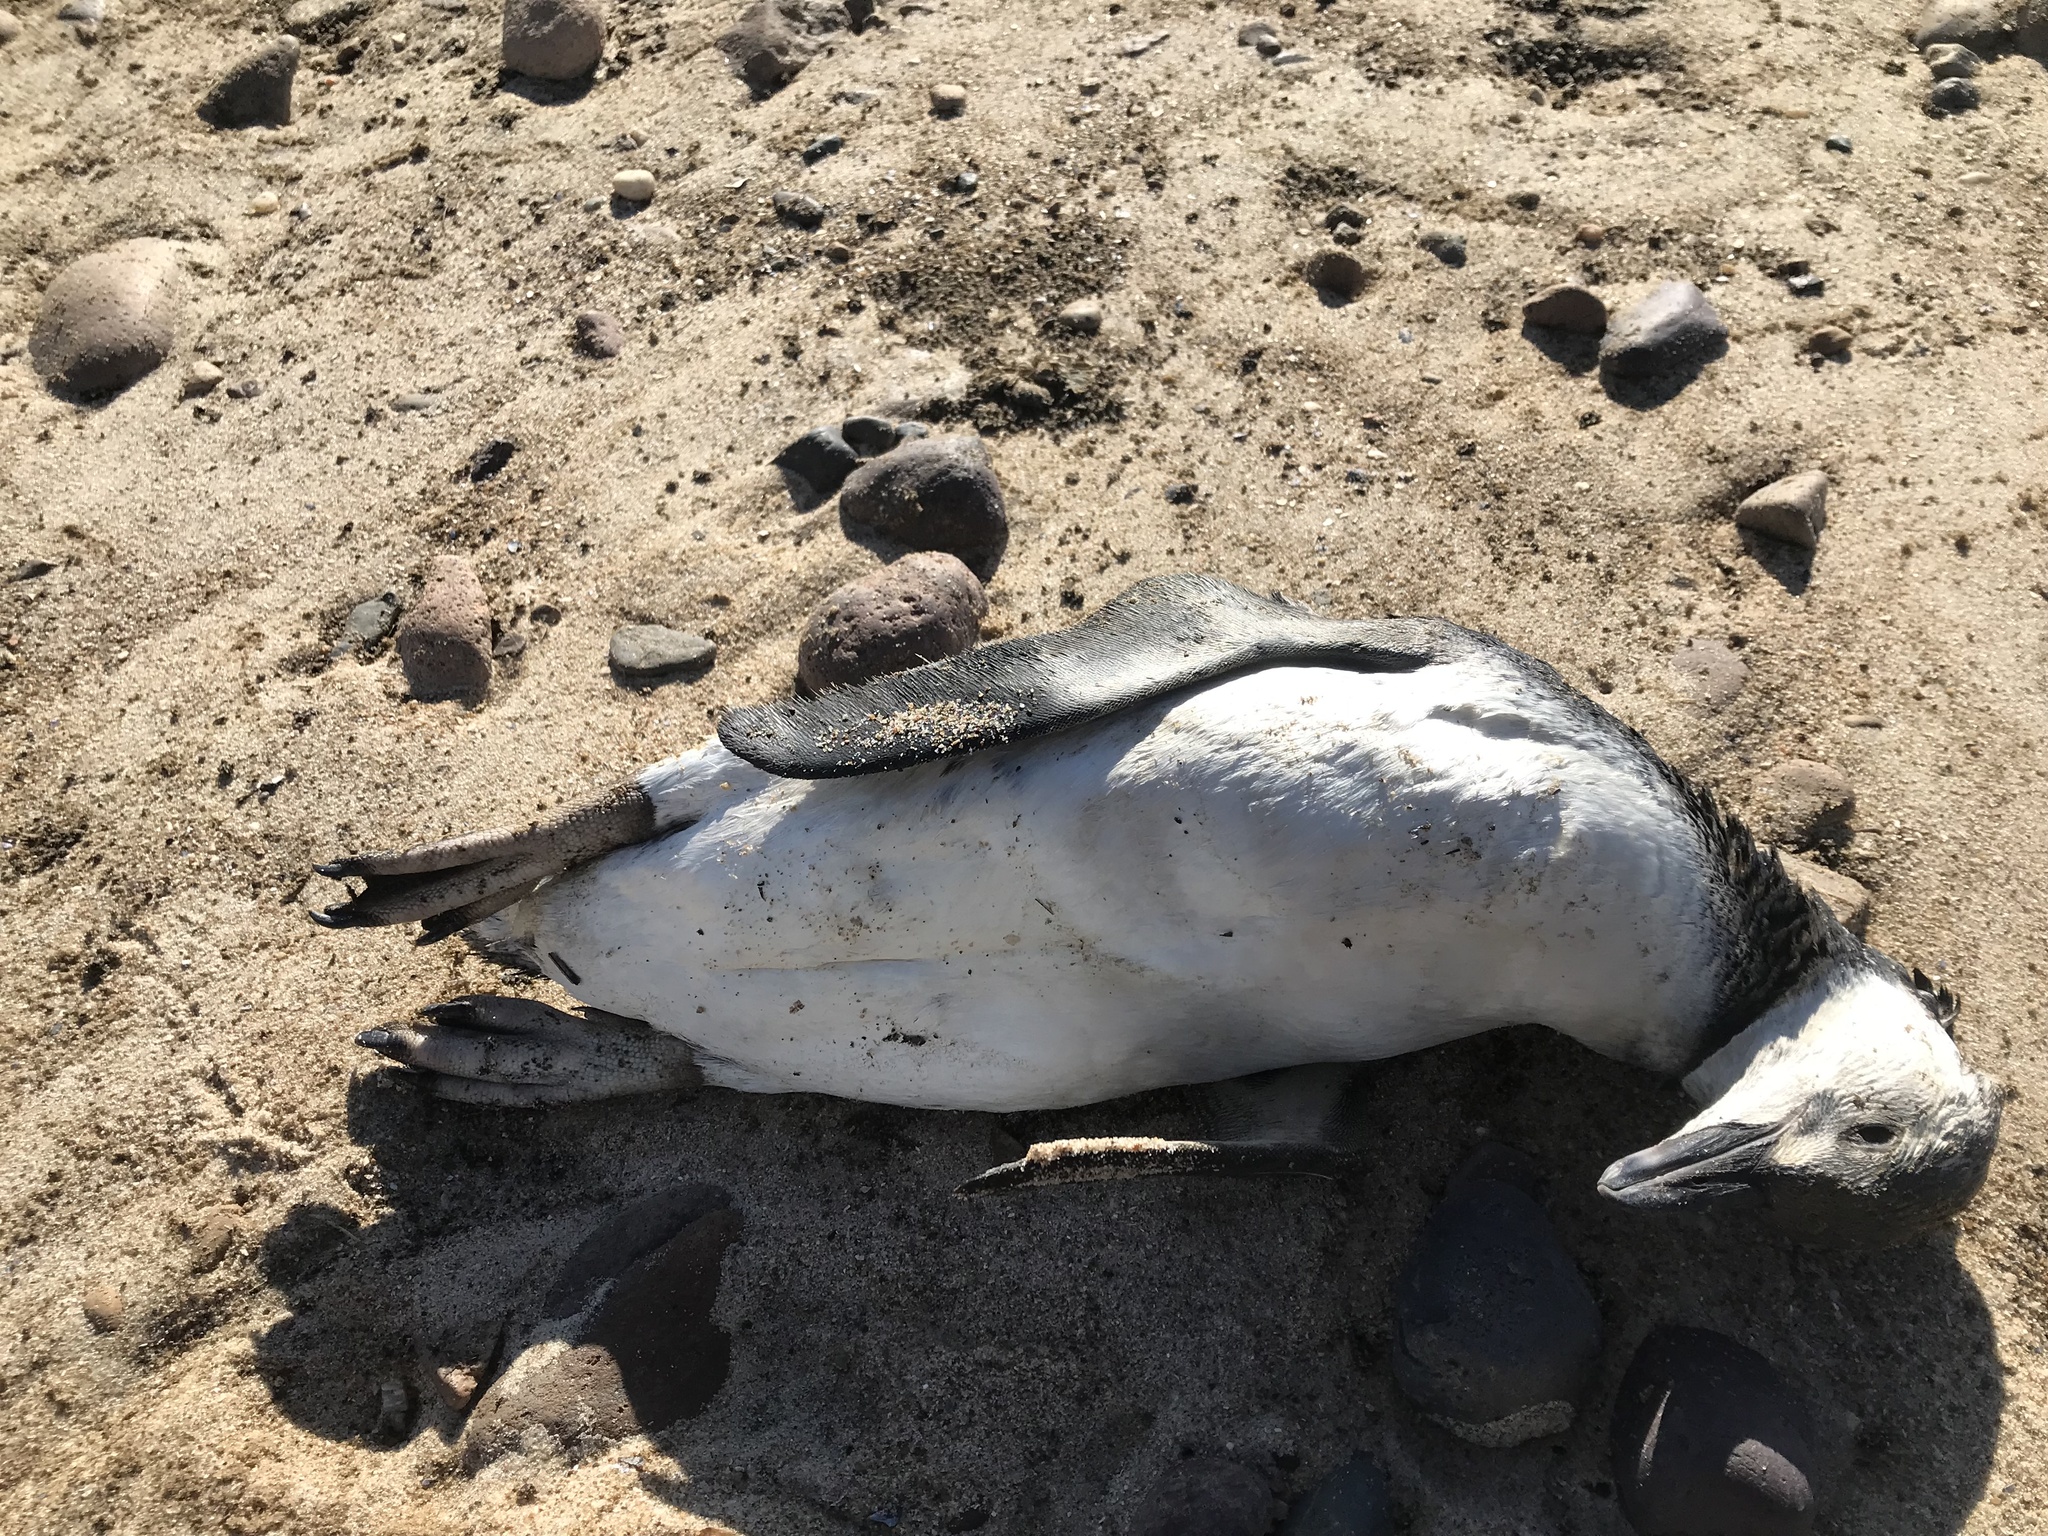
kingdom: Animalia
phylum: Chordata
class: Aves
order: Sphenisciformes
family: Spheniscidae
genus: Spheniscus
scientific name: Spheniscus magellanicus
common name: Magellanic penguin
